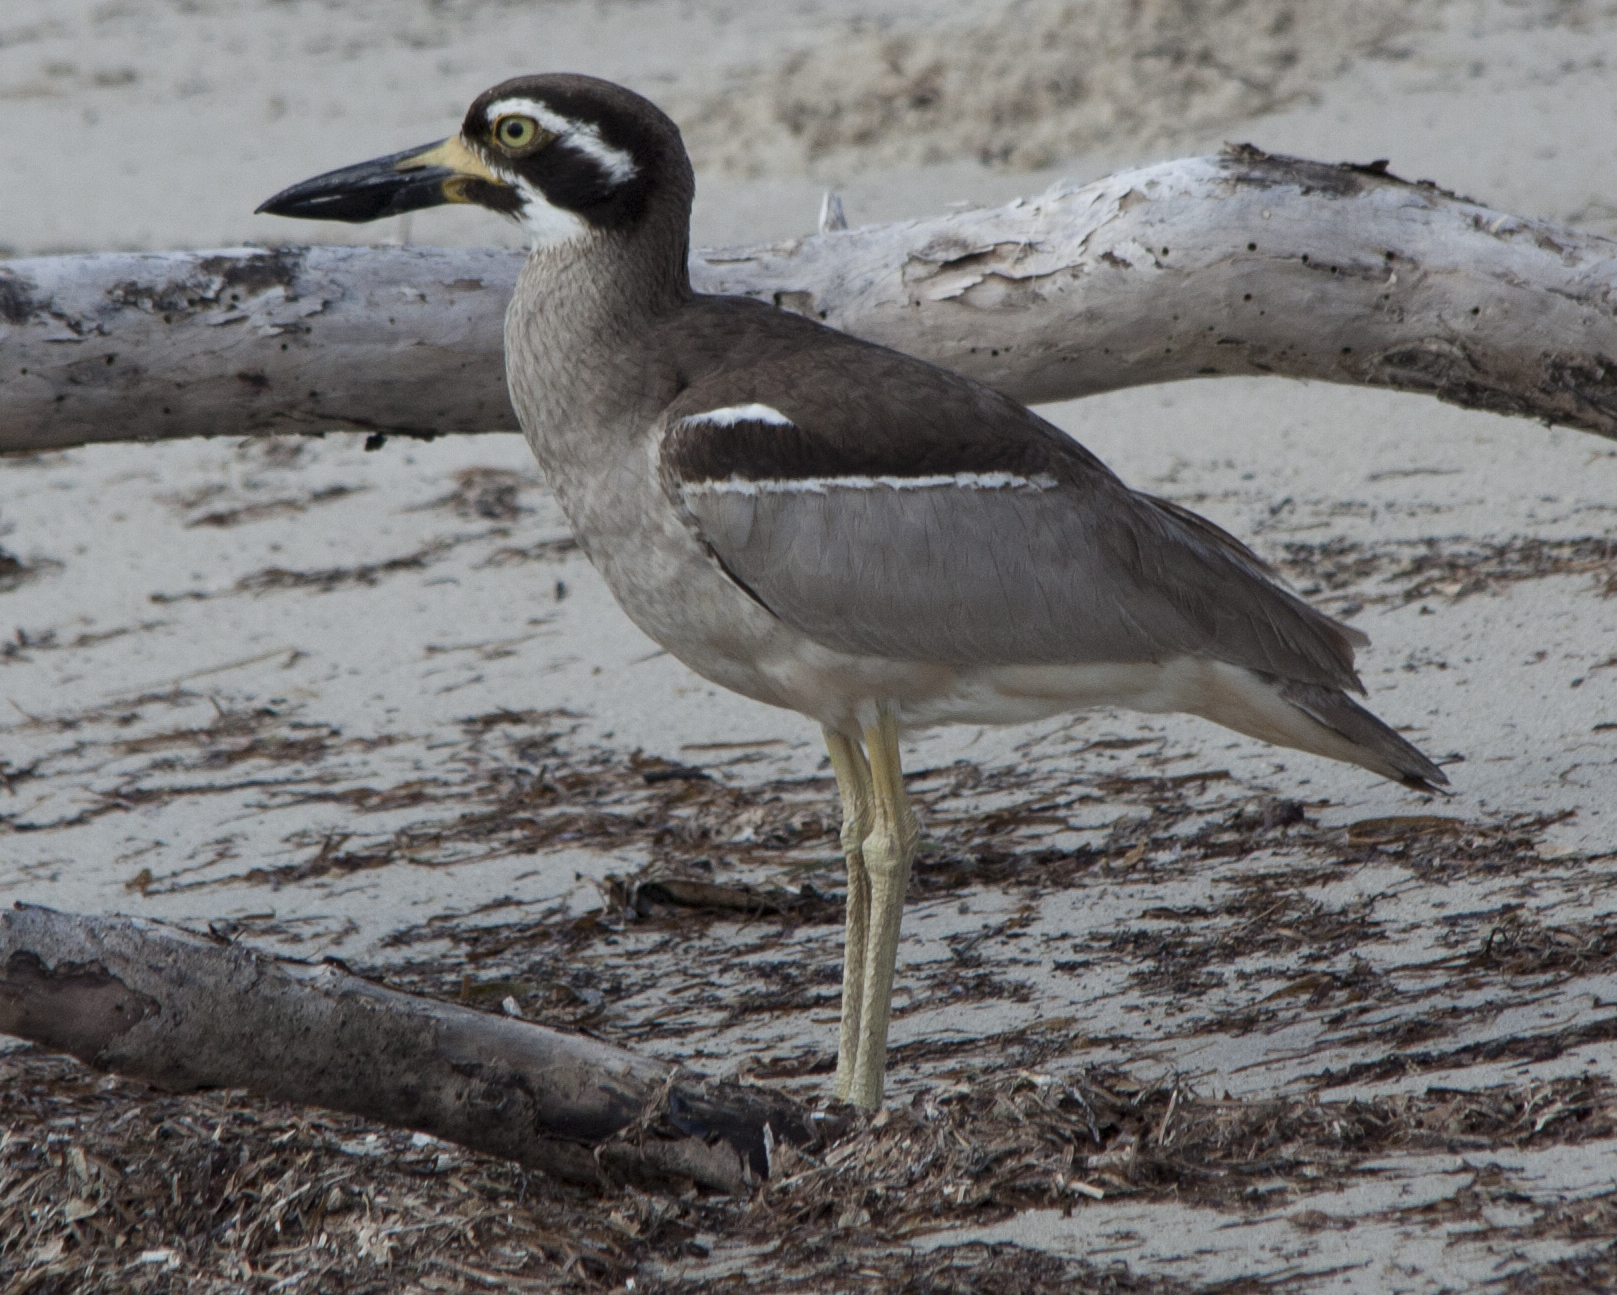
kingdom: Animalia
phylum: Chordata
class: Aves
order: Charadriiformes
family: Burhinidae
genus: Esacus
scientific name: Esacus magnirostris
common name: Beach stone-curlew
